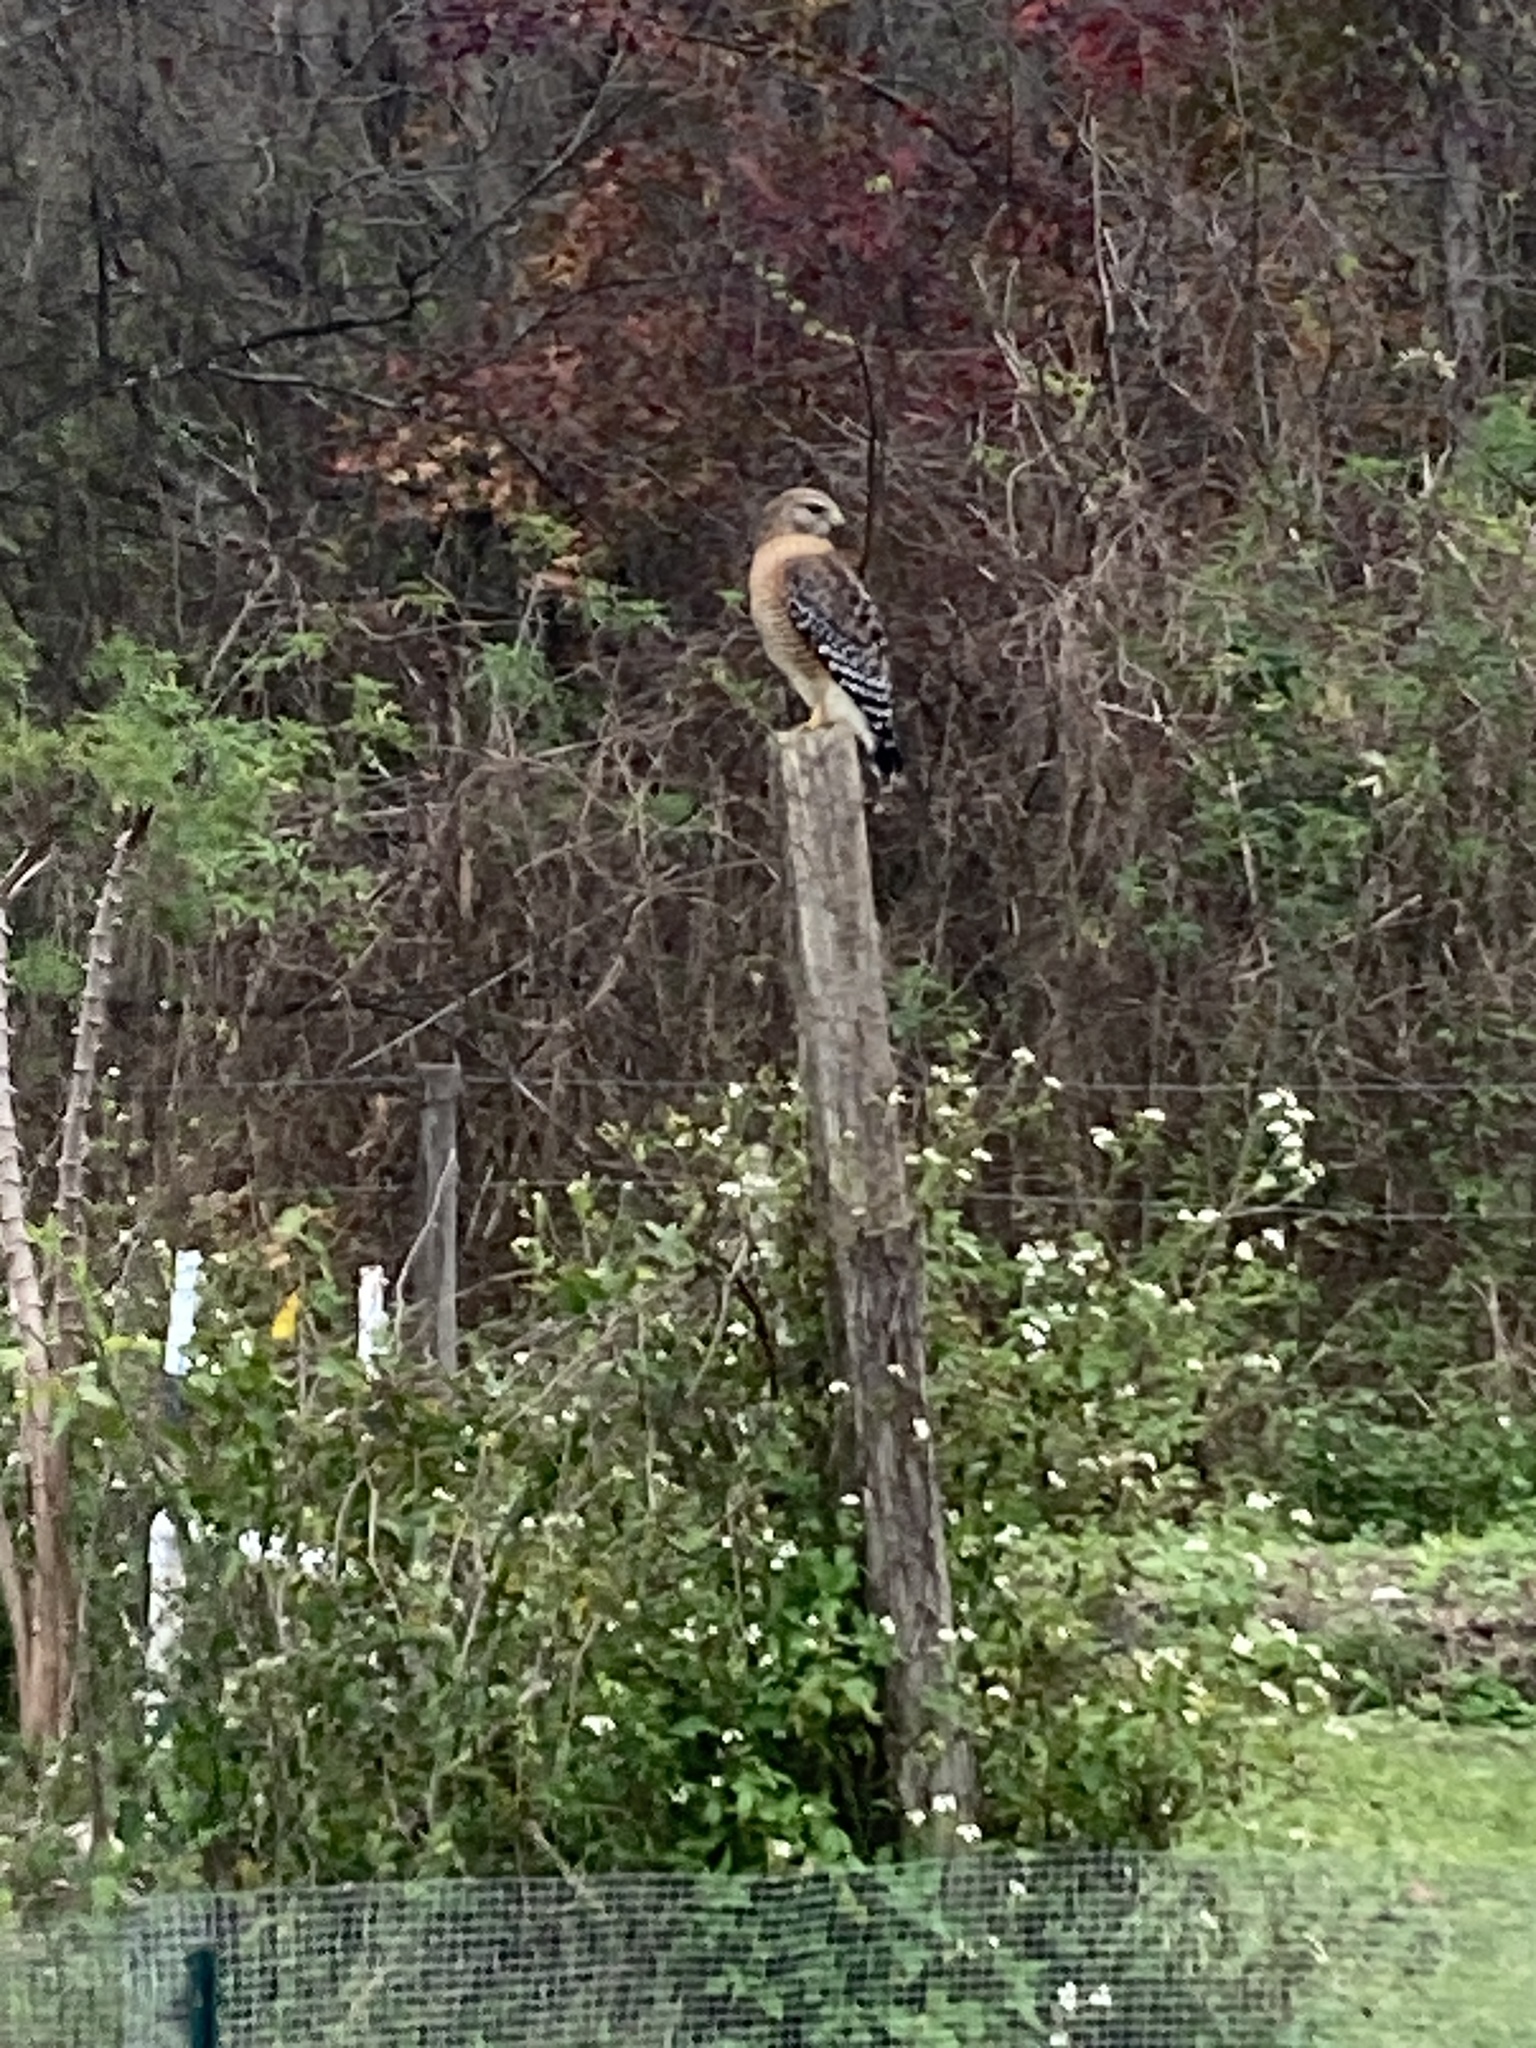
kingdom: Animalia
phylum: Chordata
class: Aves
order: Accipitriformes
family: Accipitridae
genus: Buteo
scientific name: Buteo lineatus
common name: Red-shouldered hawk
